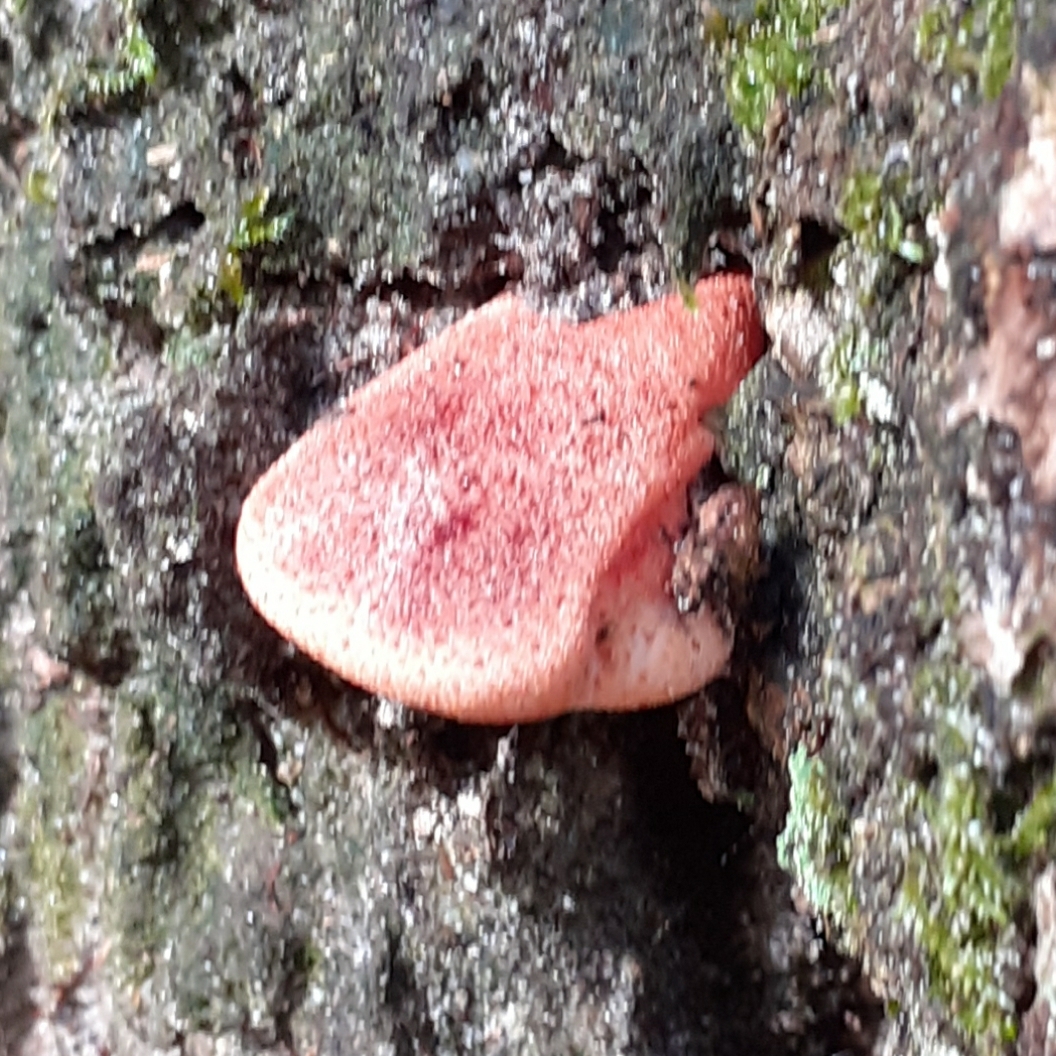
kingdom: Fungi
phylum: Basidiomycota
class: Agaricomycetes
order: Agaricales
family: Fistulinaceae
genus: Fistulina
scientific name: Fistulina hepatica
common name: Beef-steak fungus
